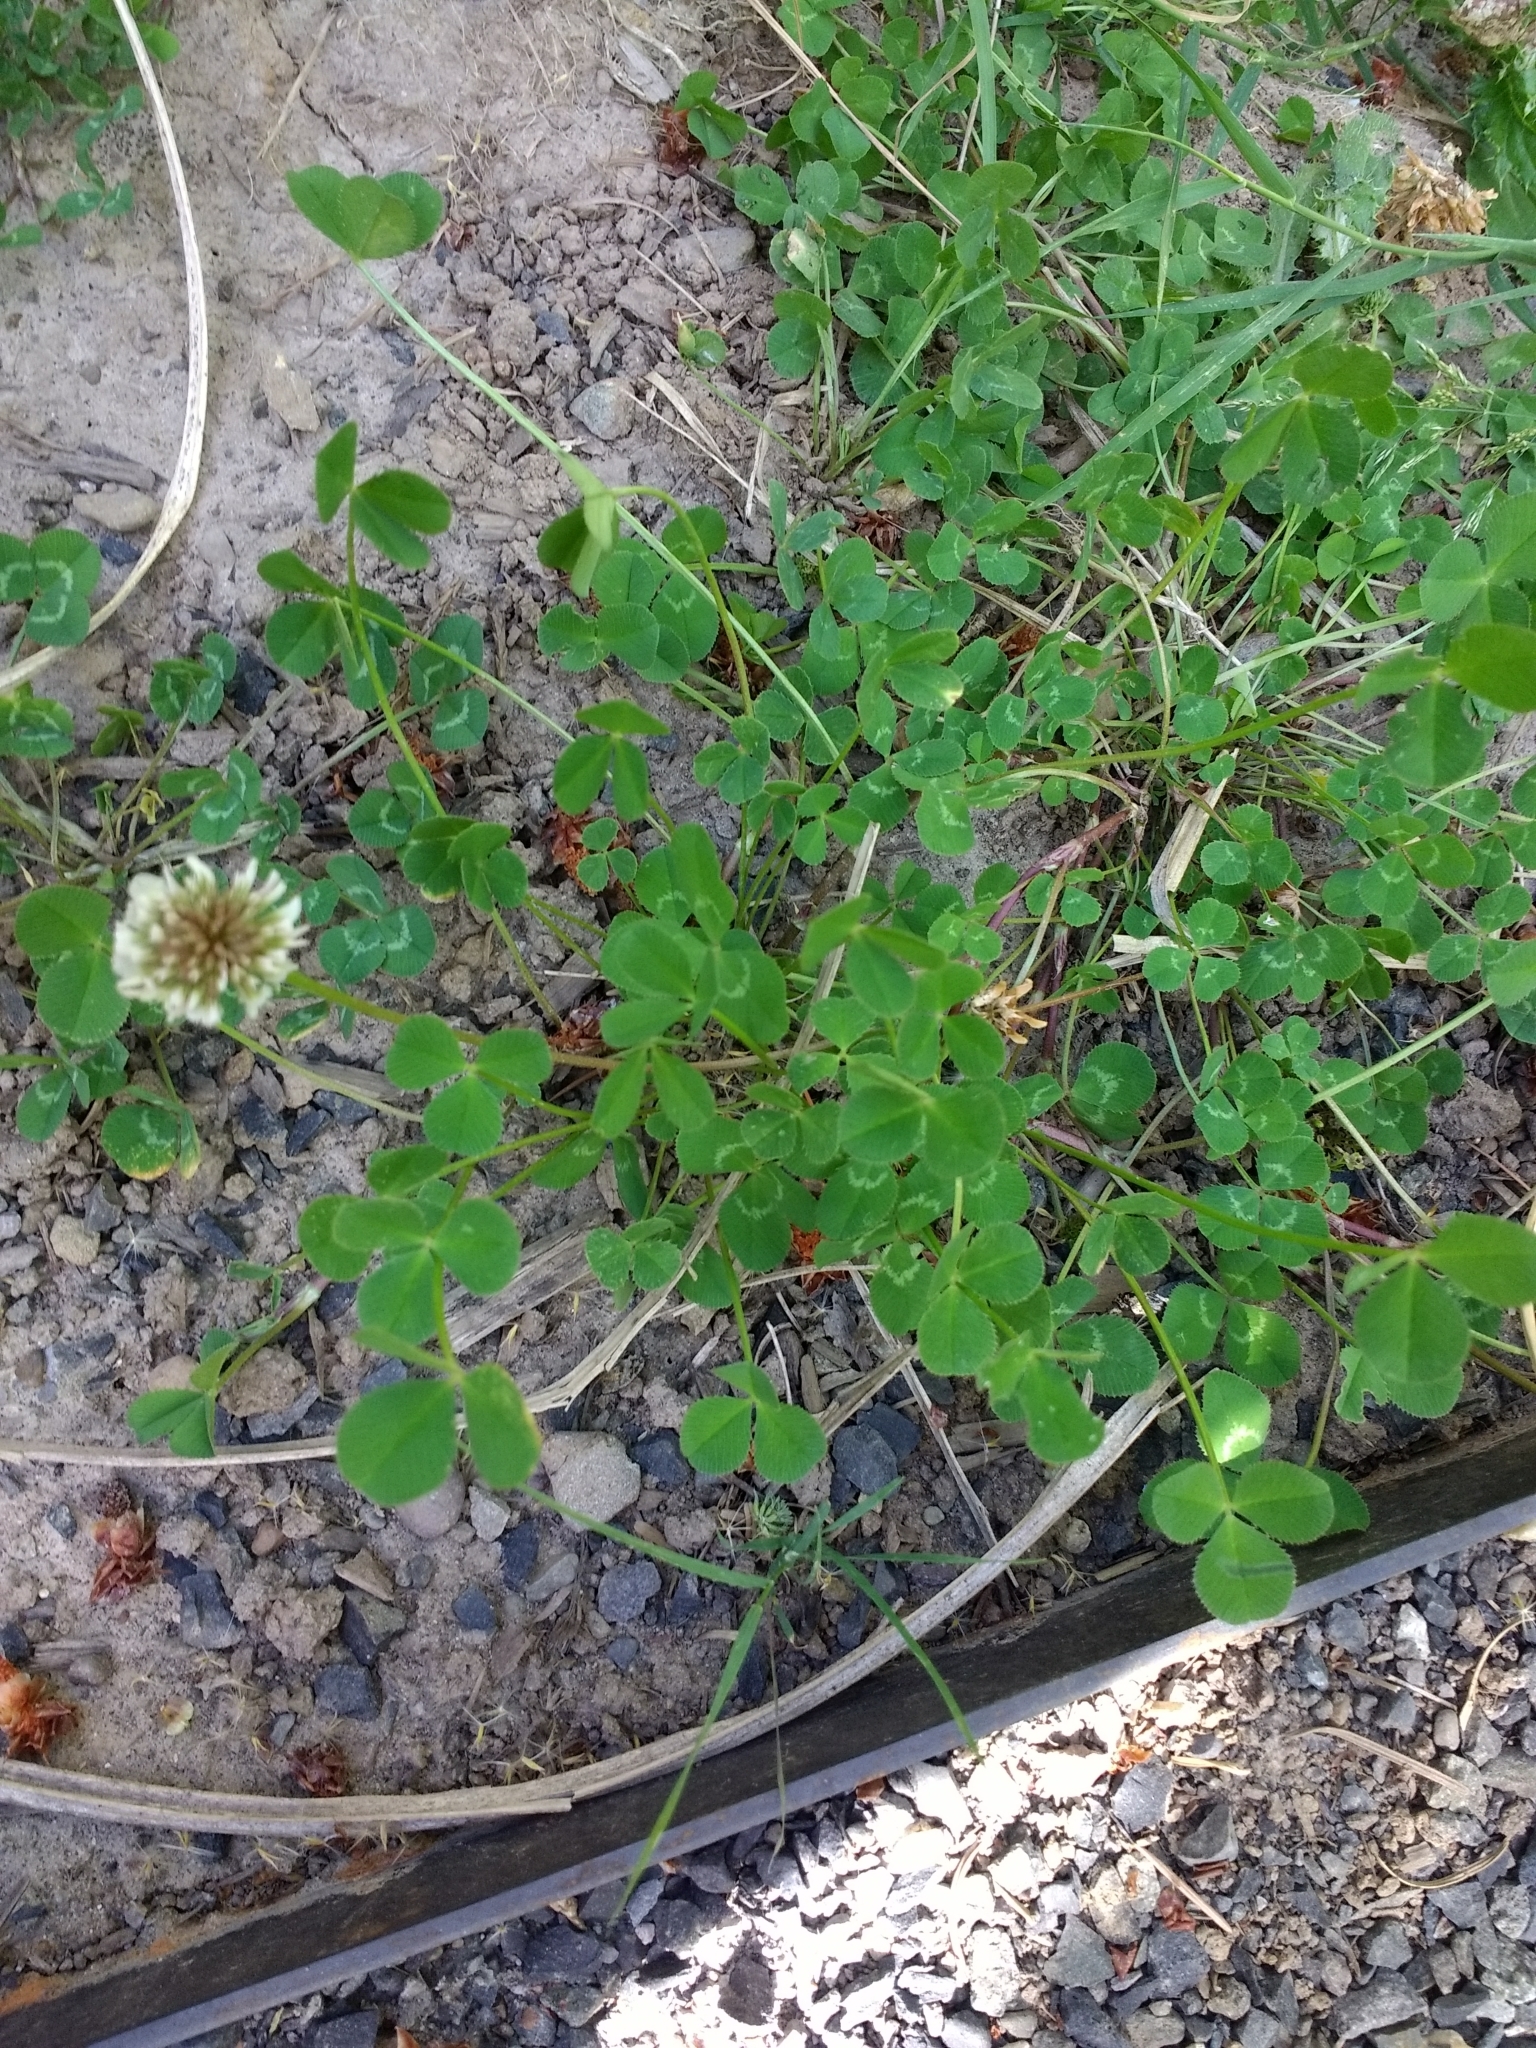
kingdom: Plantae
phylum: Tracheophyta
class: Magnoliopsida
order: Fabales
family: Fabaceae
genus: Trifolium
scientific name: Trifolium repens
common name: White clover
